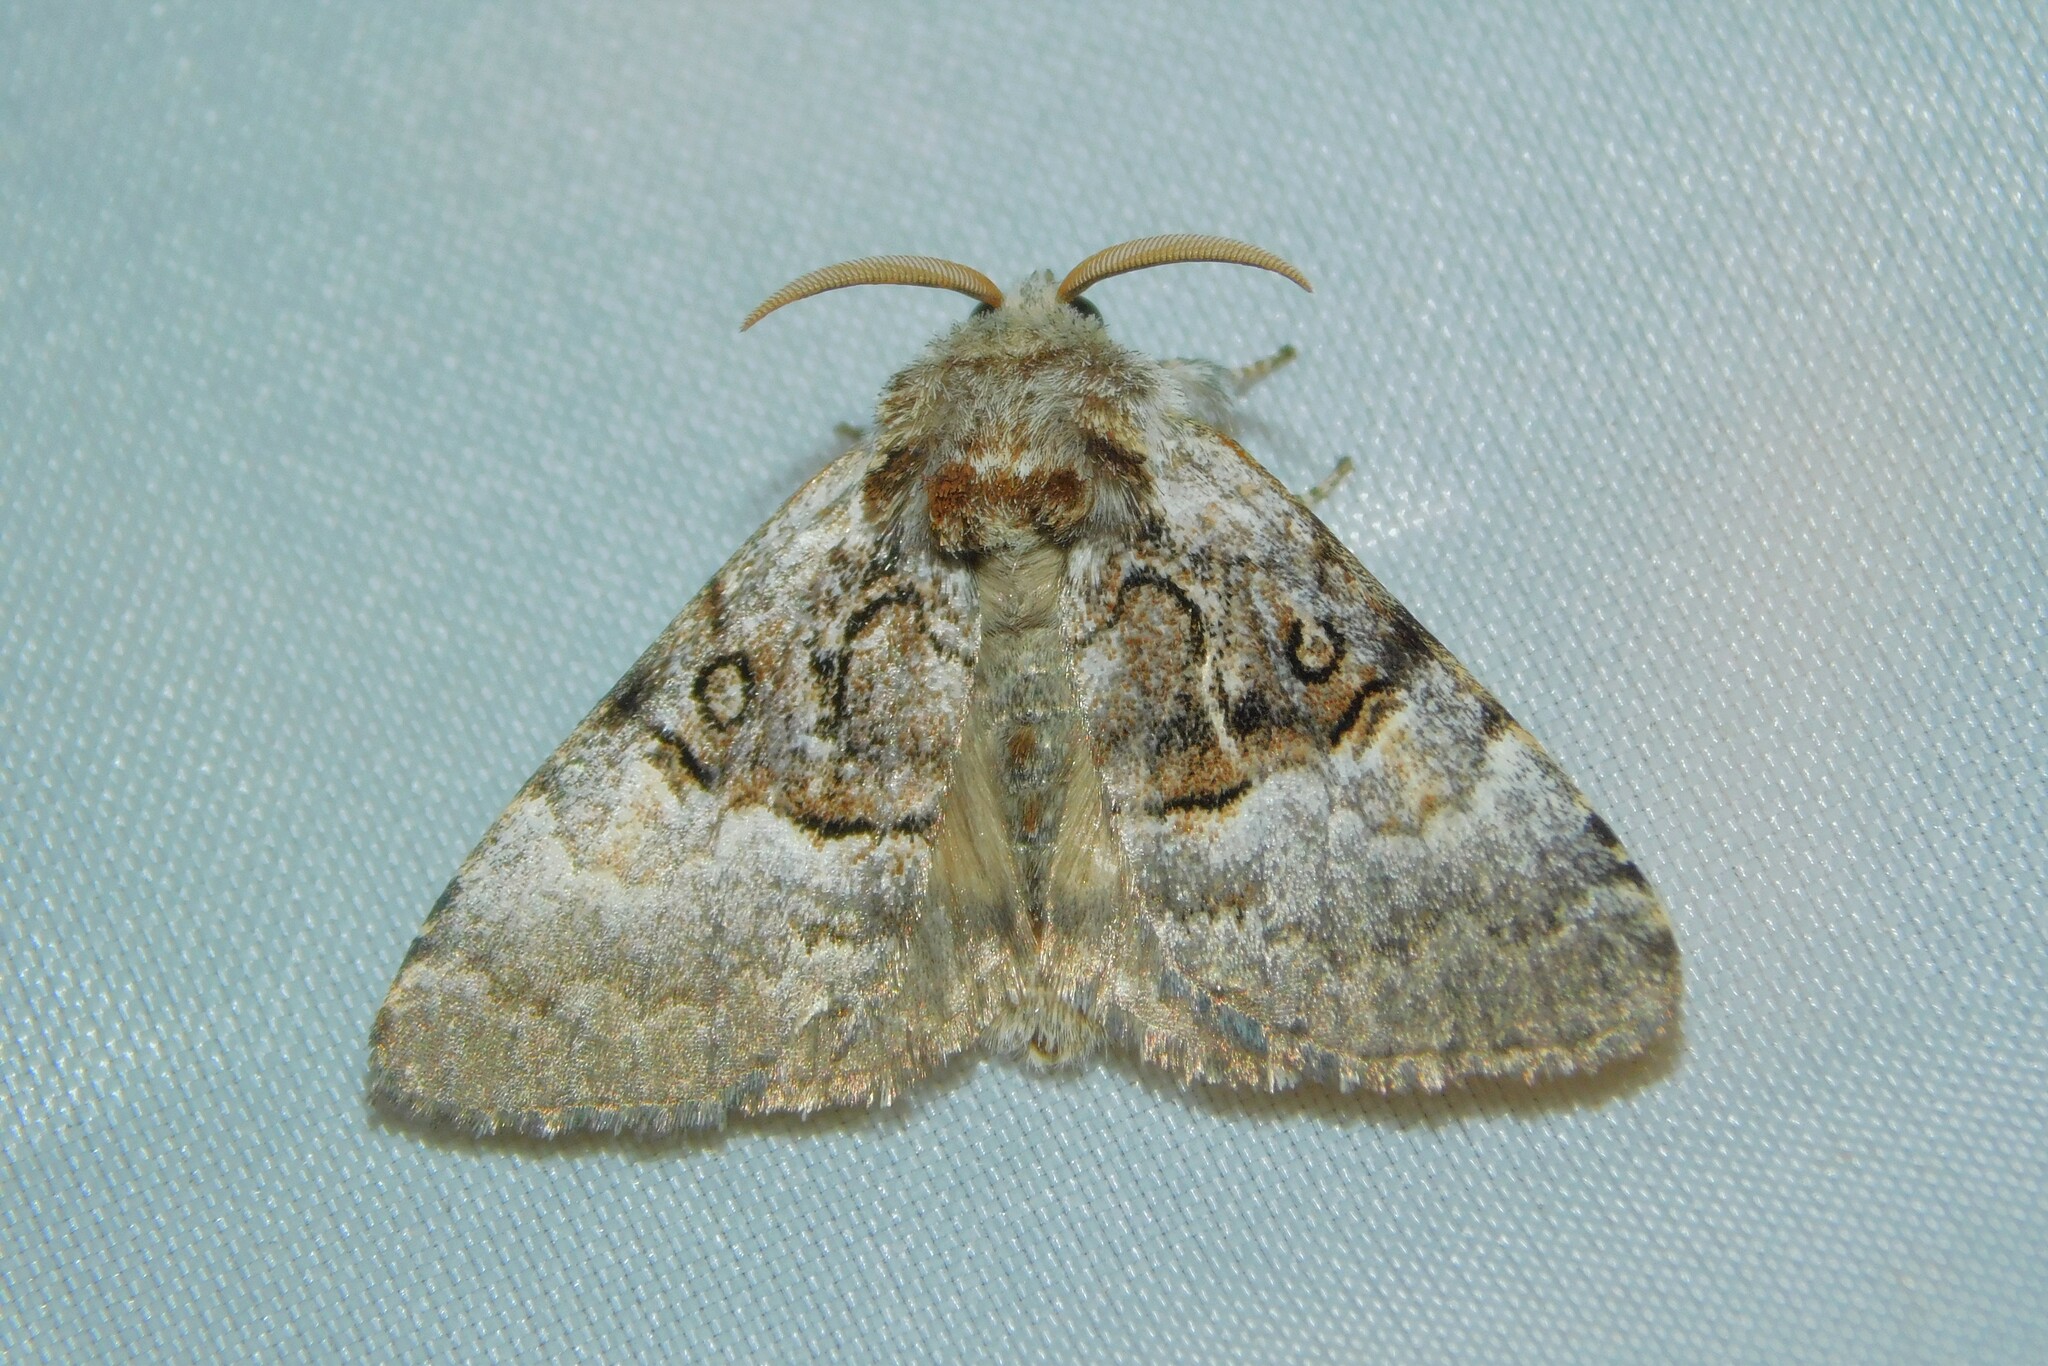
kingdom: Animalia
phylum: Arthropoda
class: Insecta
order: Lepidoptera
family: Noctuidae
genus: Colocasia
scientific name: Colocasia coryli
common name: Nut-tree tussock
